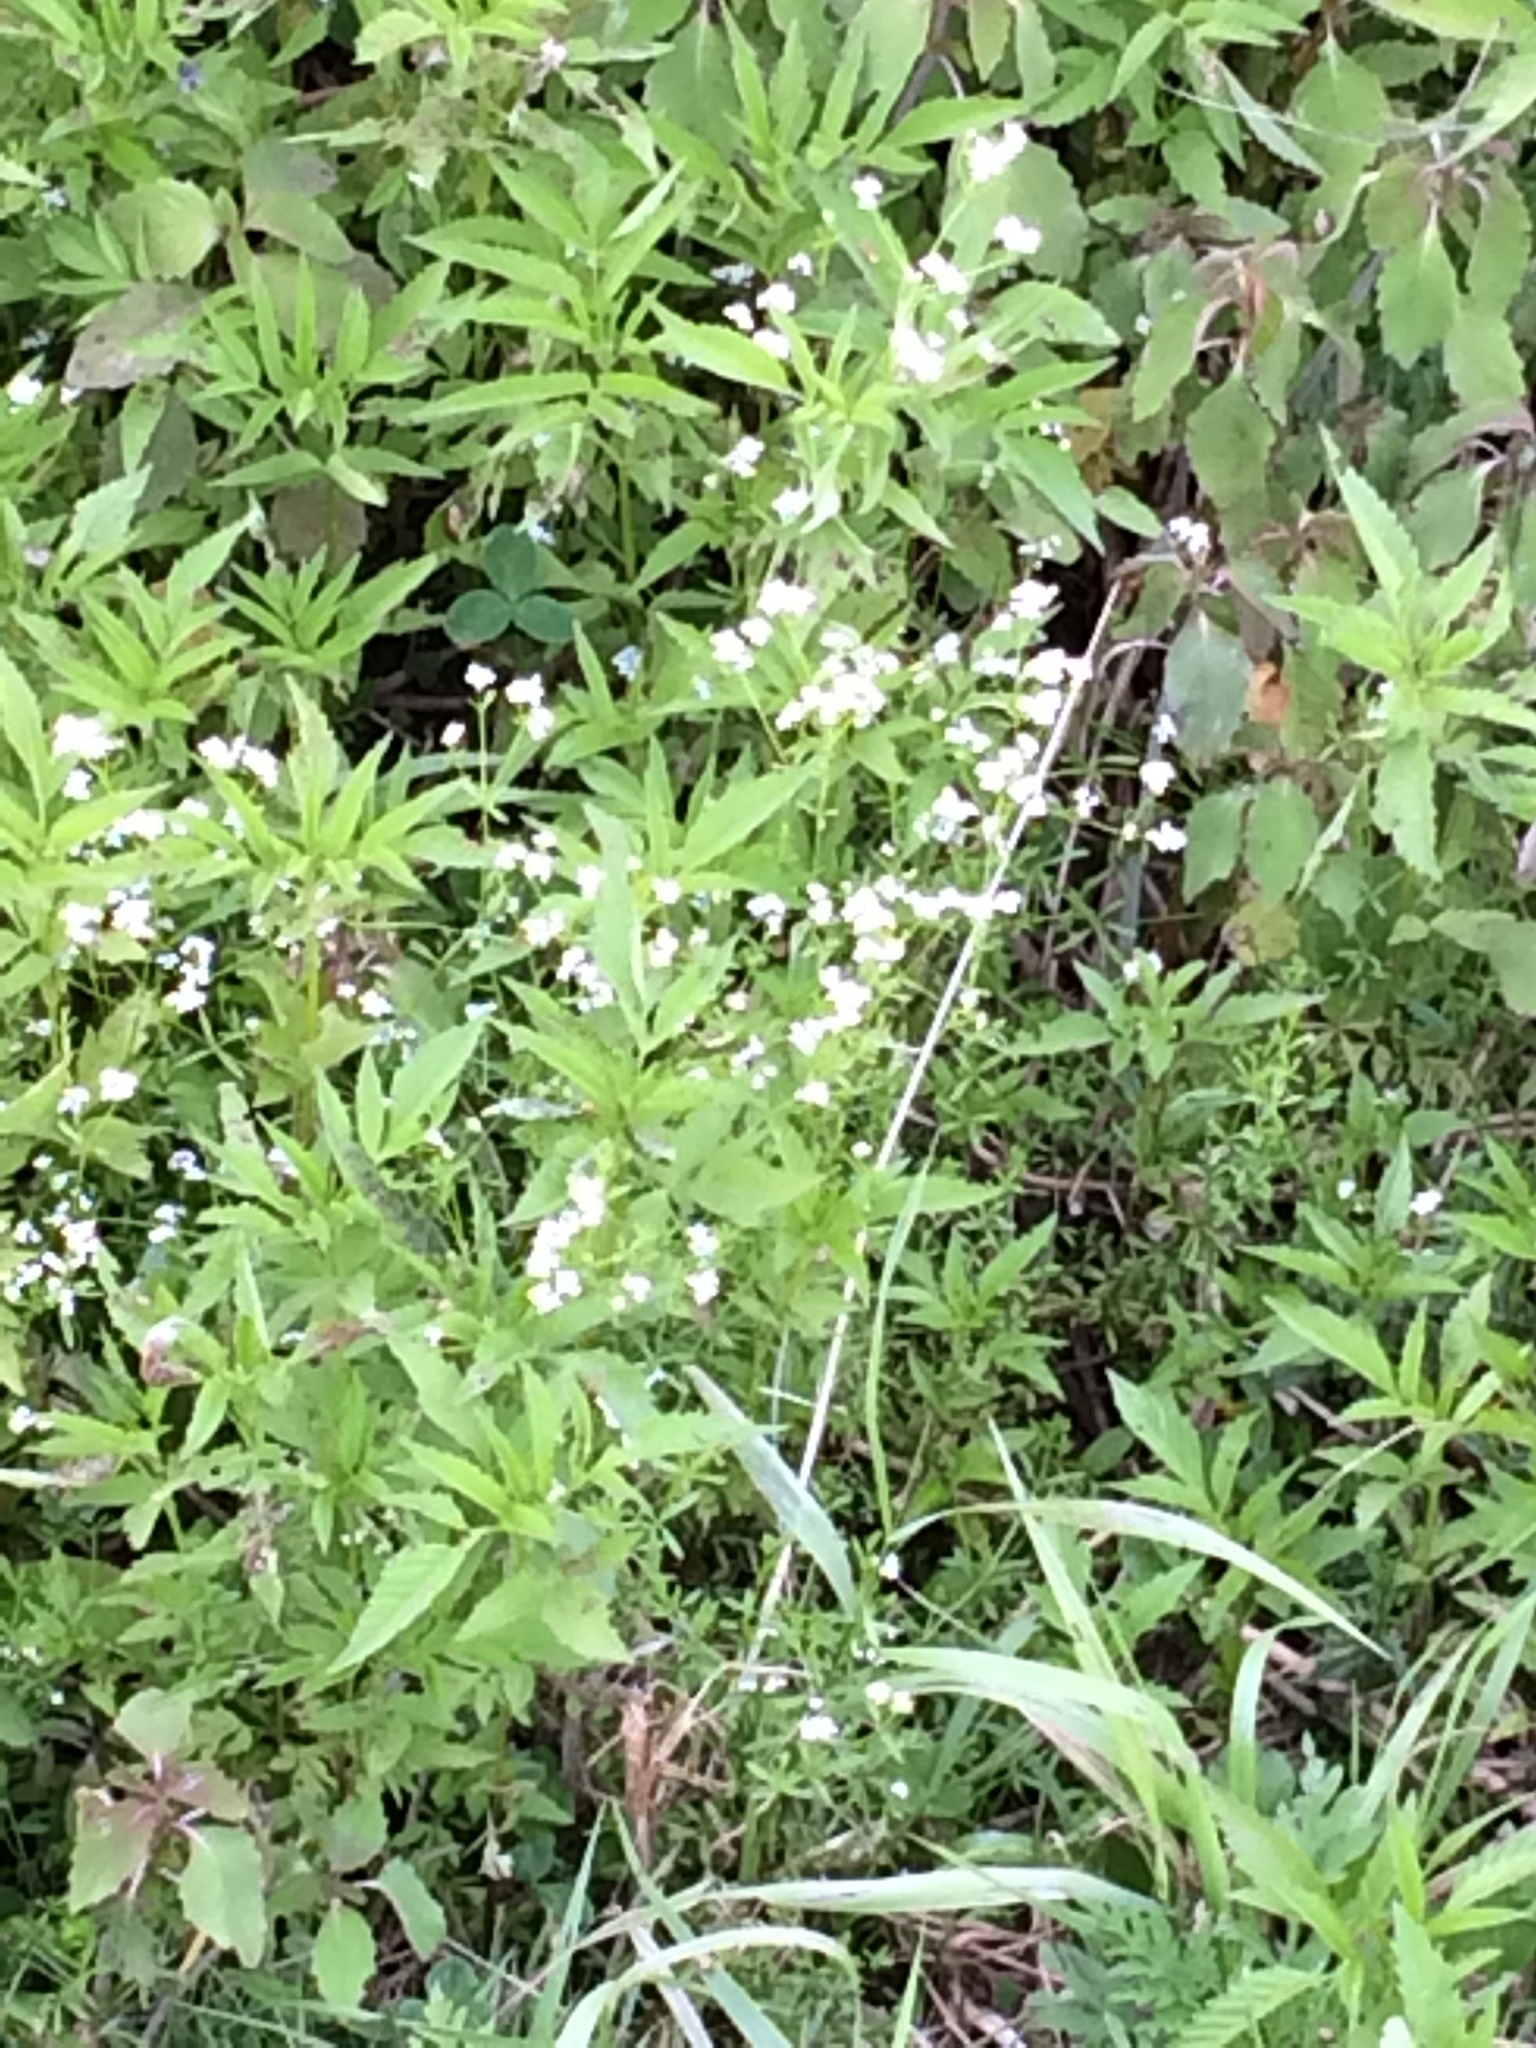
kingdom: Plantae
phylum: Tracheophyta
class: Magnoliopsida
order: Gentianales
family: Rubiaceae
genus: Galium
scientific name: Galium palustre
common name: Common marsh-bedstraw
